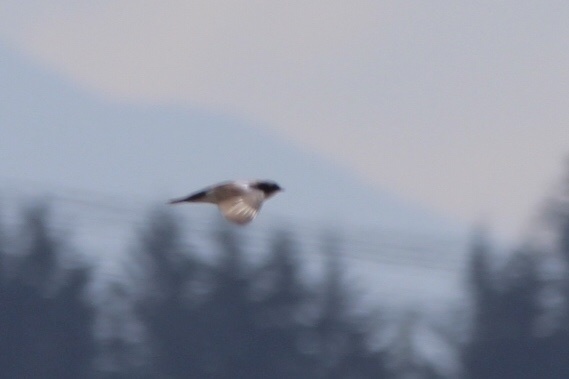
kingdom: Animalia
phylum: Chordata
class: Aves
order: Passeriformes
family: Hirundinidae
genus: Tachycineta
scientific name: Tachycineta bicolor
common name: Tree swallow
